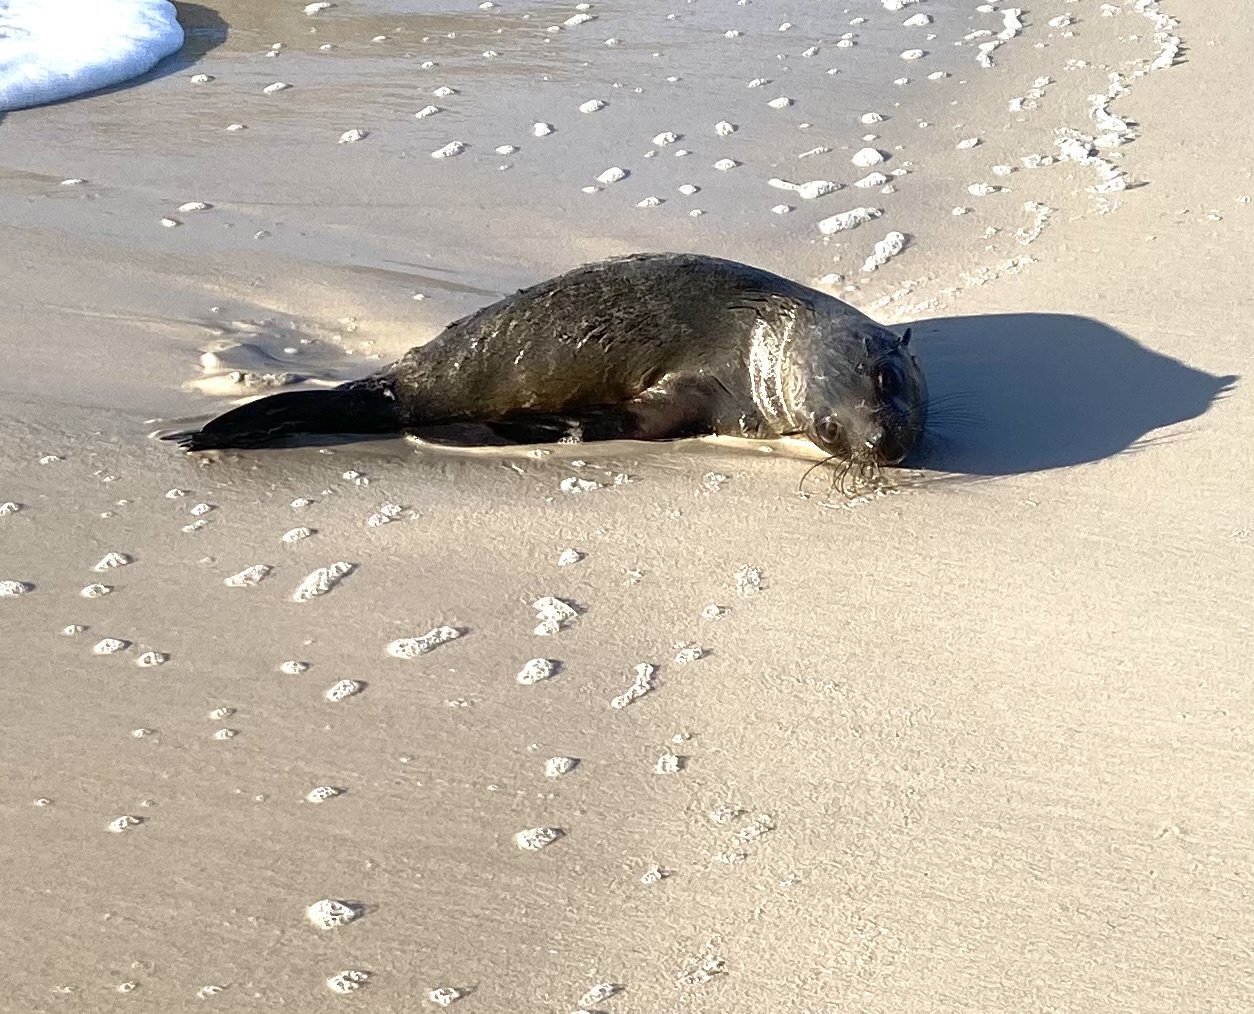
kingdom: Animalia
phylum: Chordata
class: Mammalia
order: Carnivora
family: Otariidae
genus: Arctocephalus
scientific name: Arctocephalus pusillus
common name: Brown fur seal
